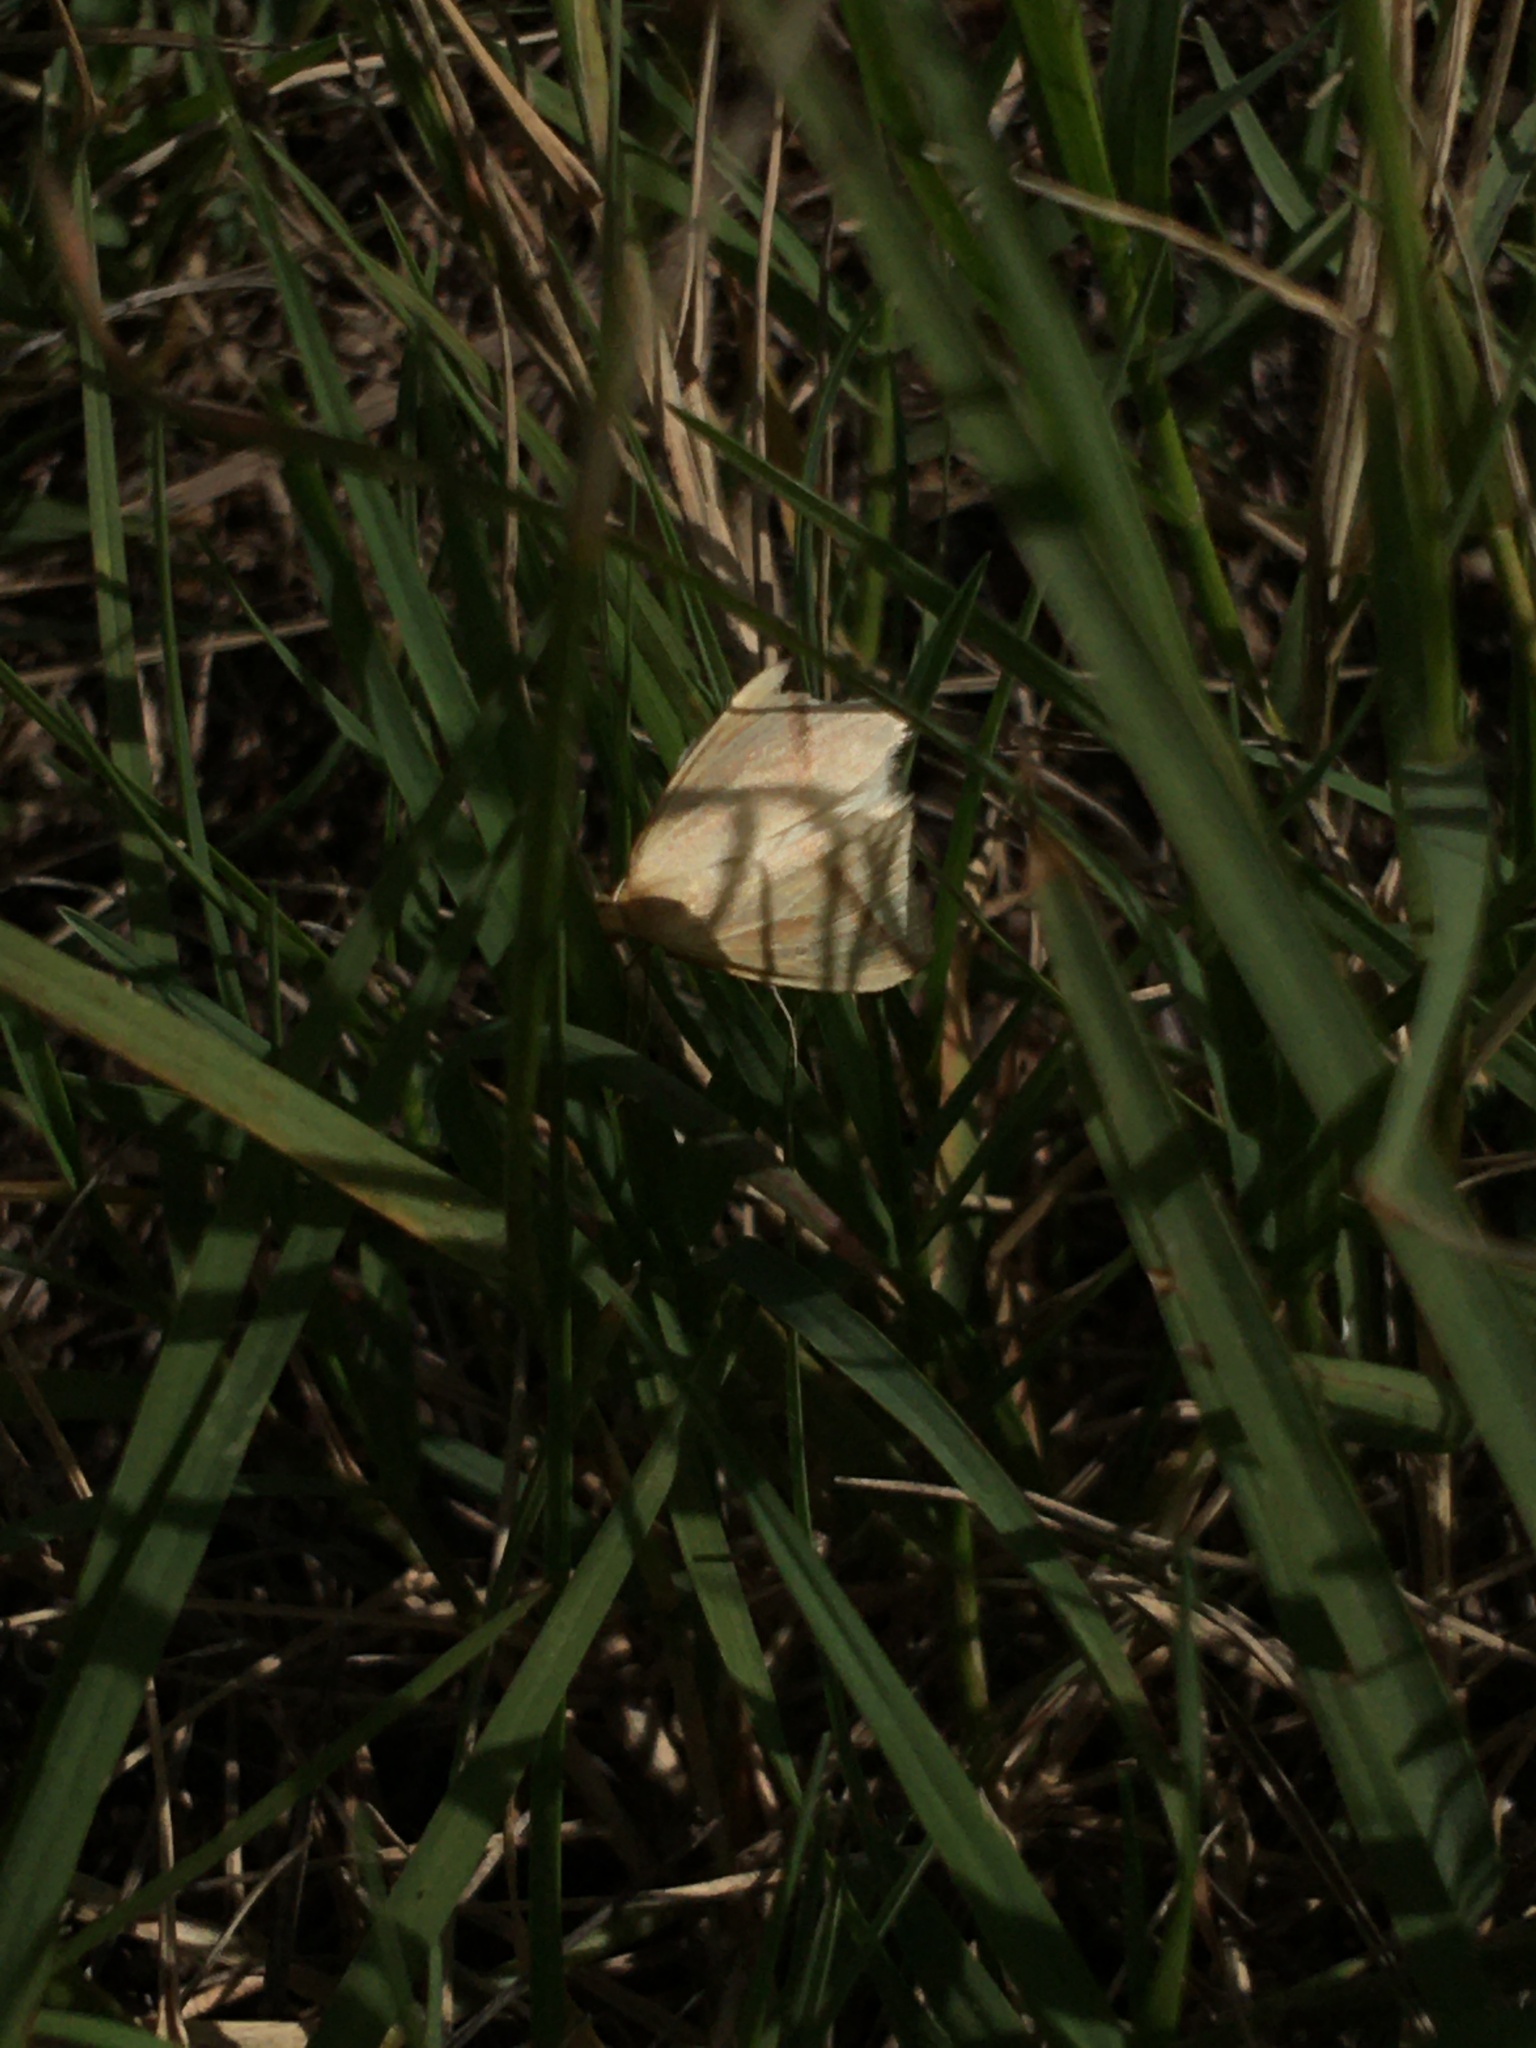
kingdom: Animalia
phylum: Arthropoda
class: Insecta
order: Lepidoptera
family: Geometridae
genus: Rhodometra
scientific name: Rhodometra sacraria
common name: Vestal
